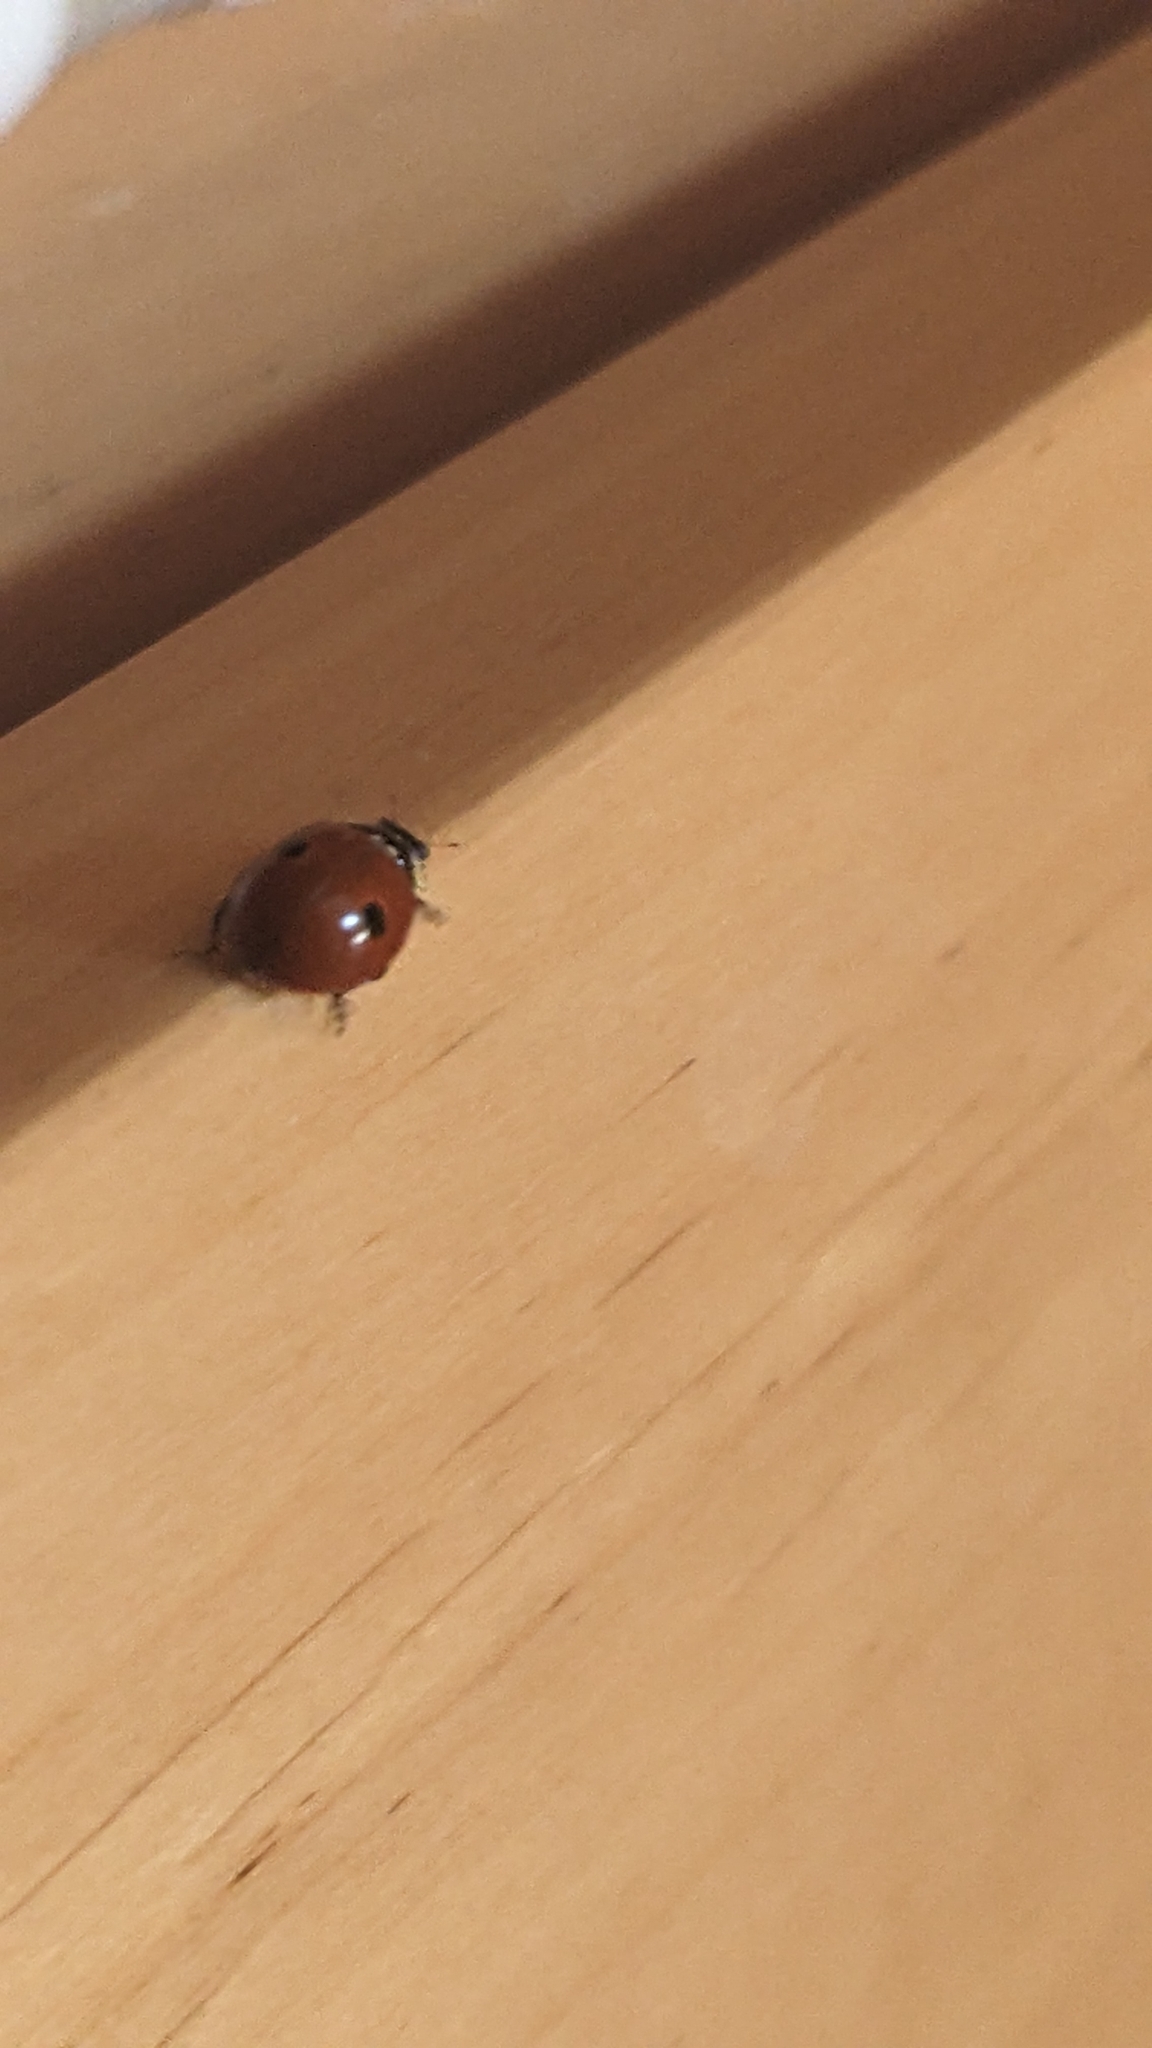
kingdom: Animalia
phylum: Arthropoda
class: Insecta
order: Coleoptera
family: Coccinellidae
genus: Adalia
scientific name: Adalia bipunctata
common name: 2-spot ladybird
